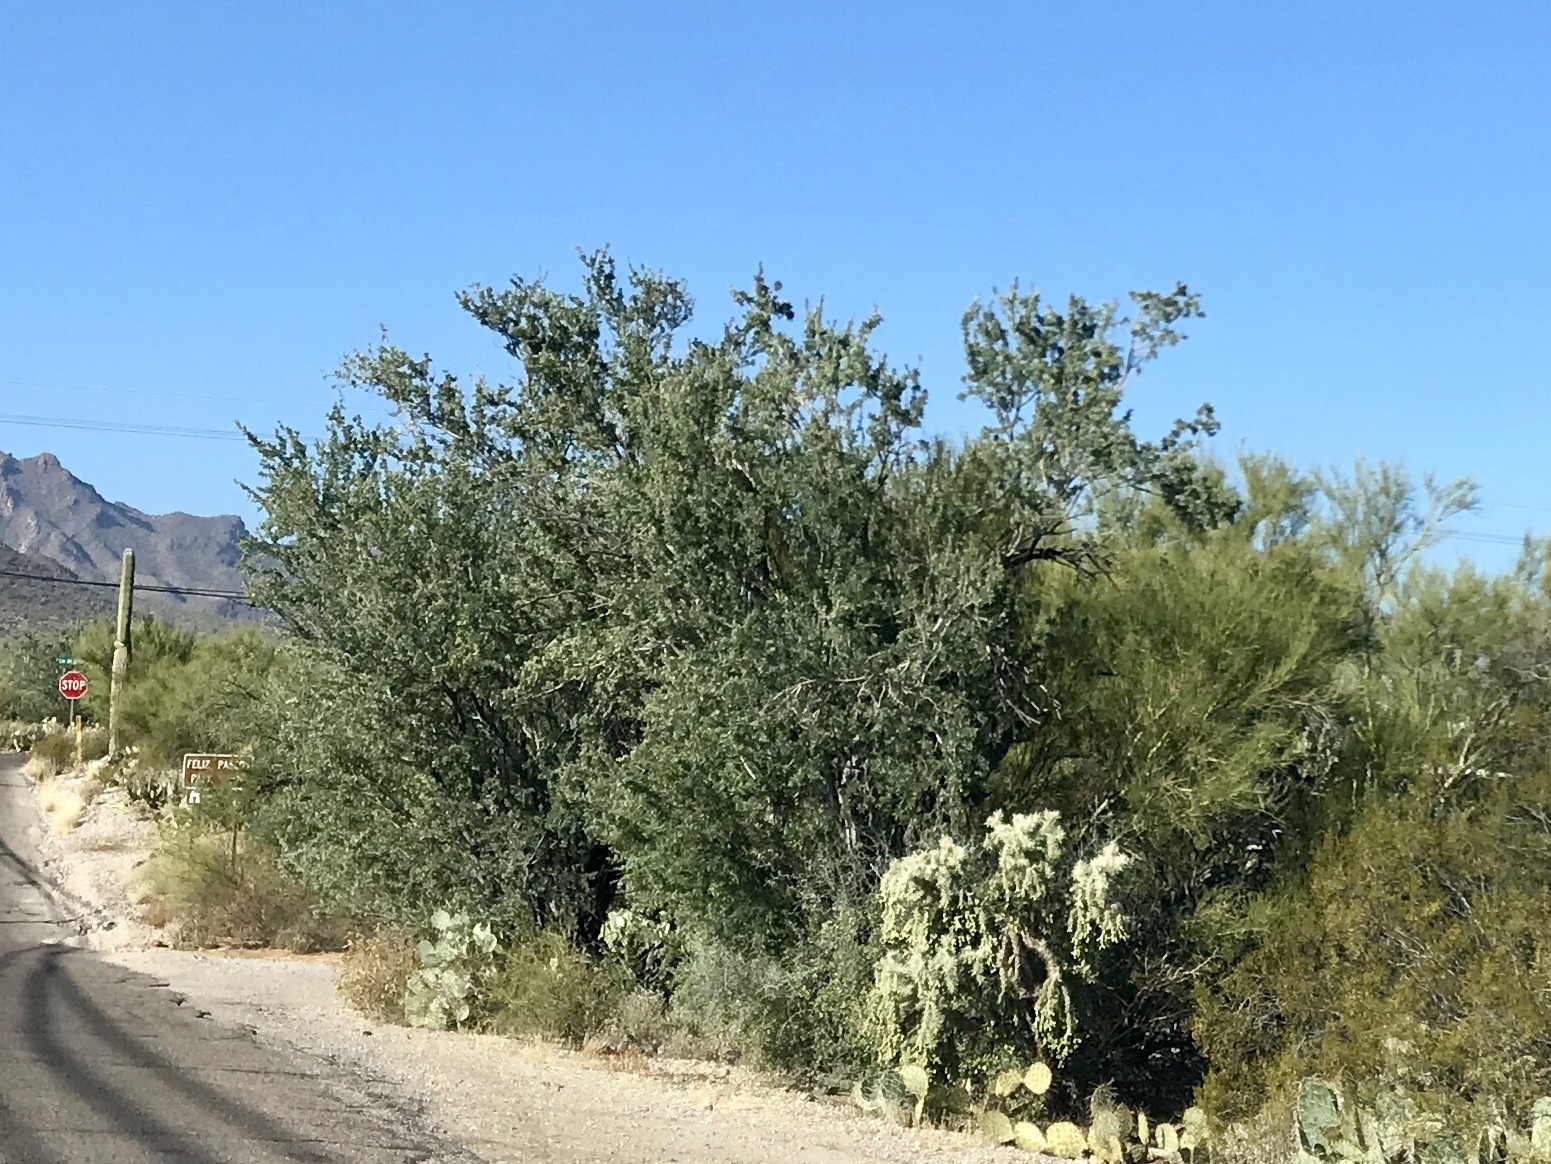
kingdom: Plantae
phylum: Tracheophyta
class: Magnoliopsida
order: Fabales
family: Fabaceae
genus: Olneya
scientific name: Olneya tesota
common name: Desert ironwood
